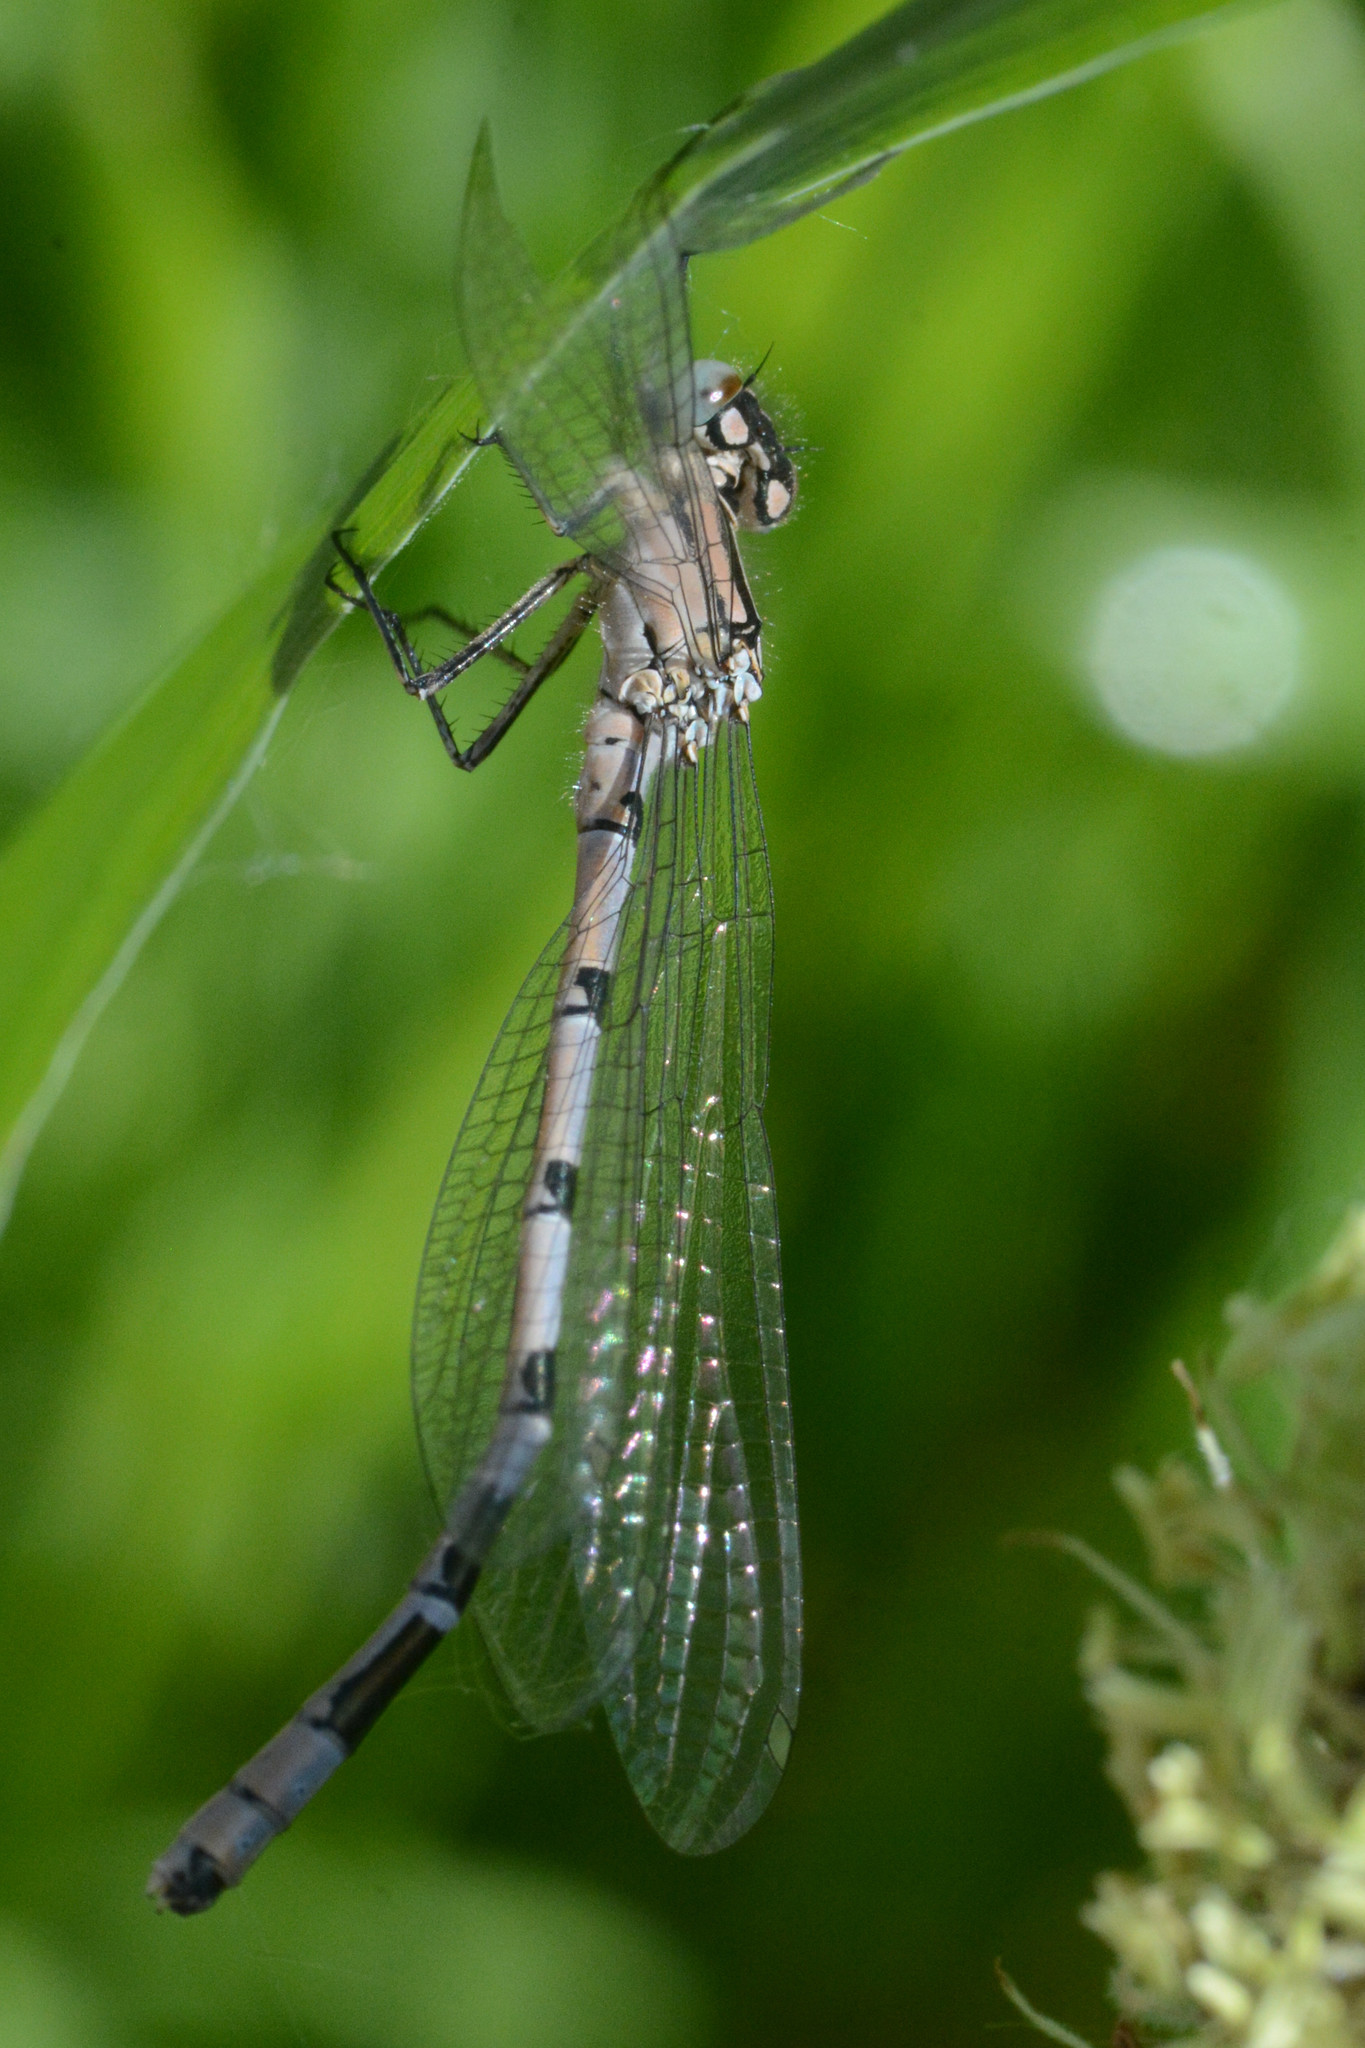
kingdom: Animalia
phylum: Arthropoda
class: Insecta
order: Odonata
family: Coenagrionidae
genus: Enallagma
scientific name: Enallagma cyathigerum
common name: Common blue damselfly
